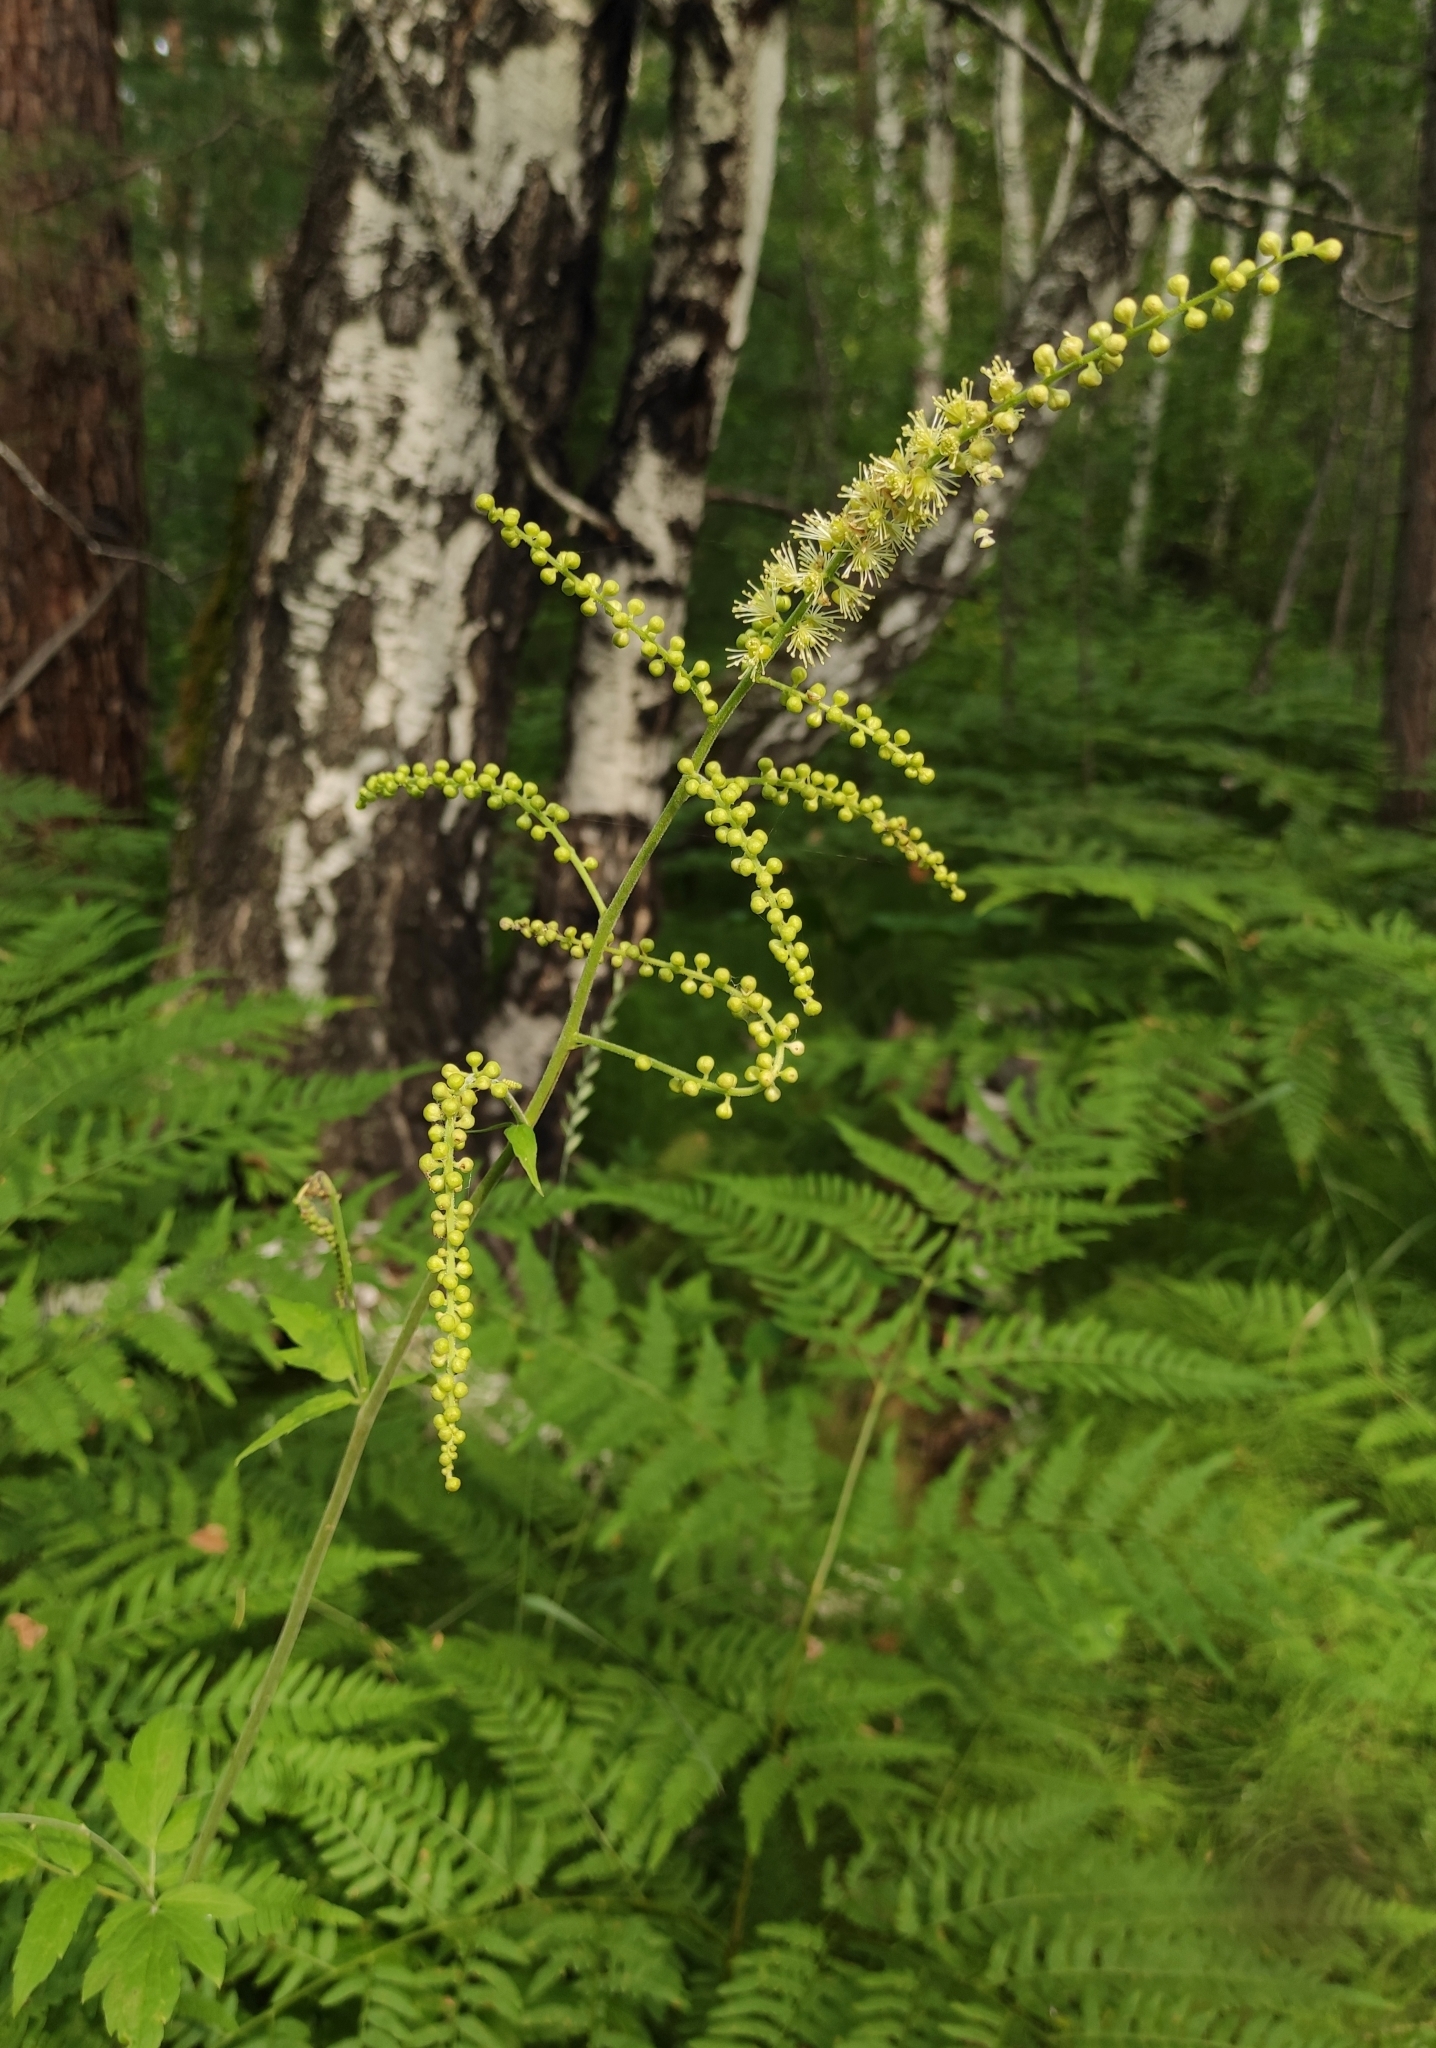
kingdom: Plantae
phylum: Tracheophyta
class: Magnoliopsida
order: Ranunculales
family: Ranunculaceae
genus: Actaea
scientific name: Actaea cimicifuga
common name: Chinese cimicifuga
